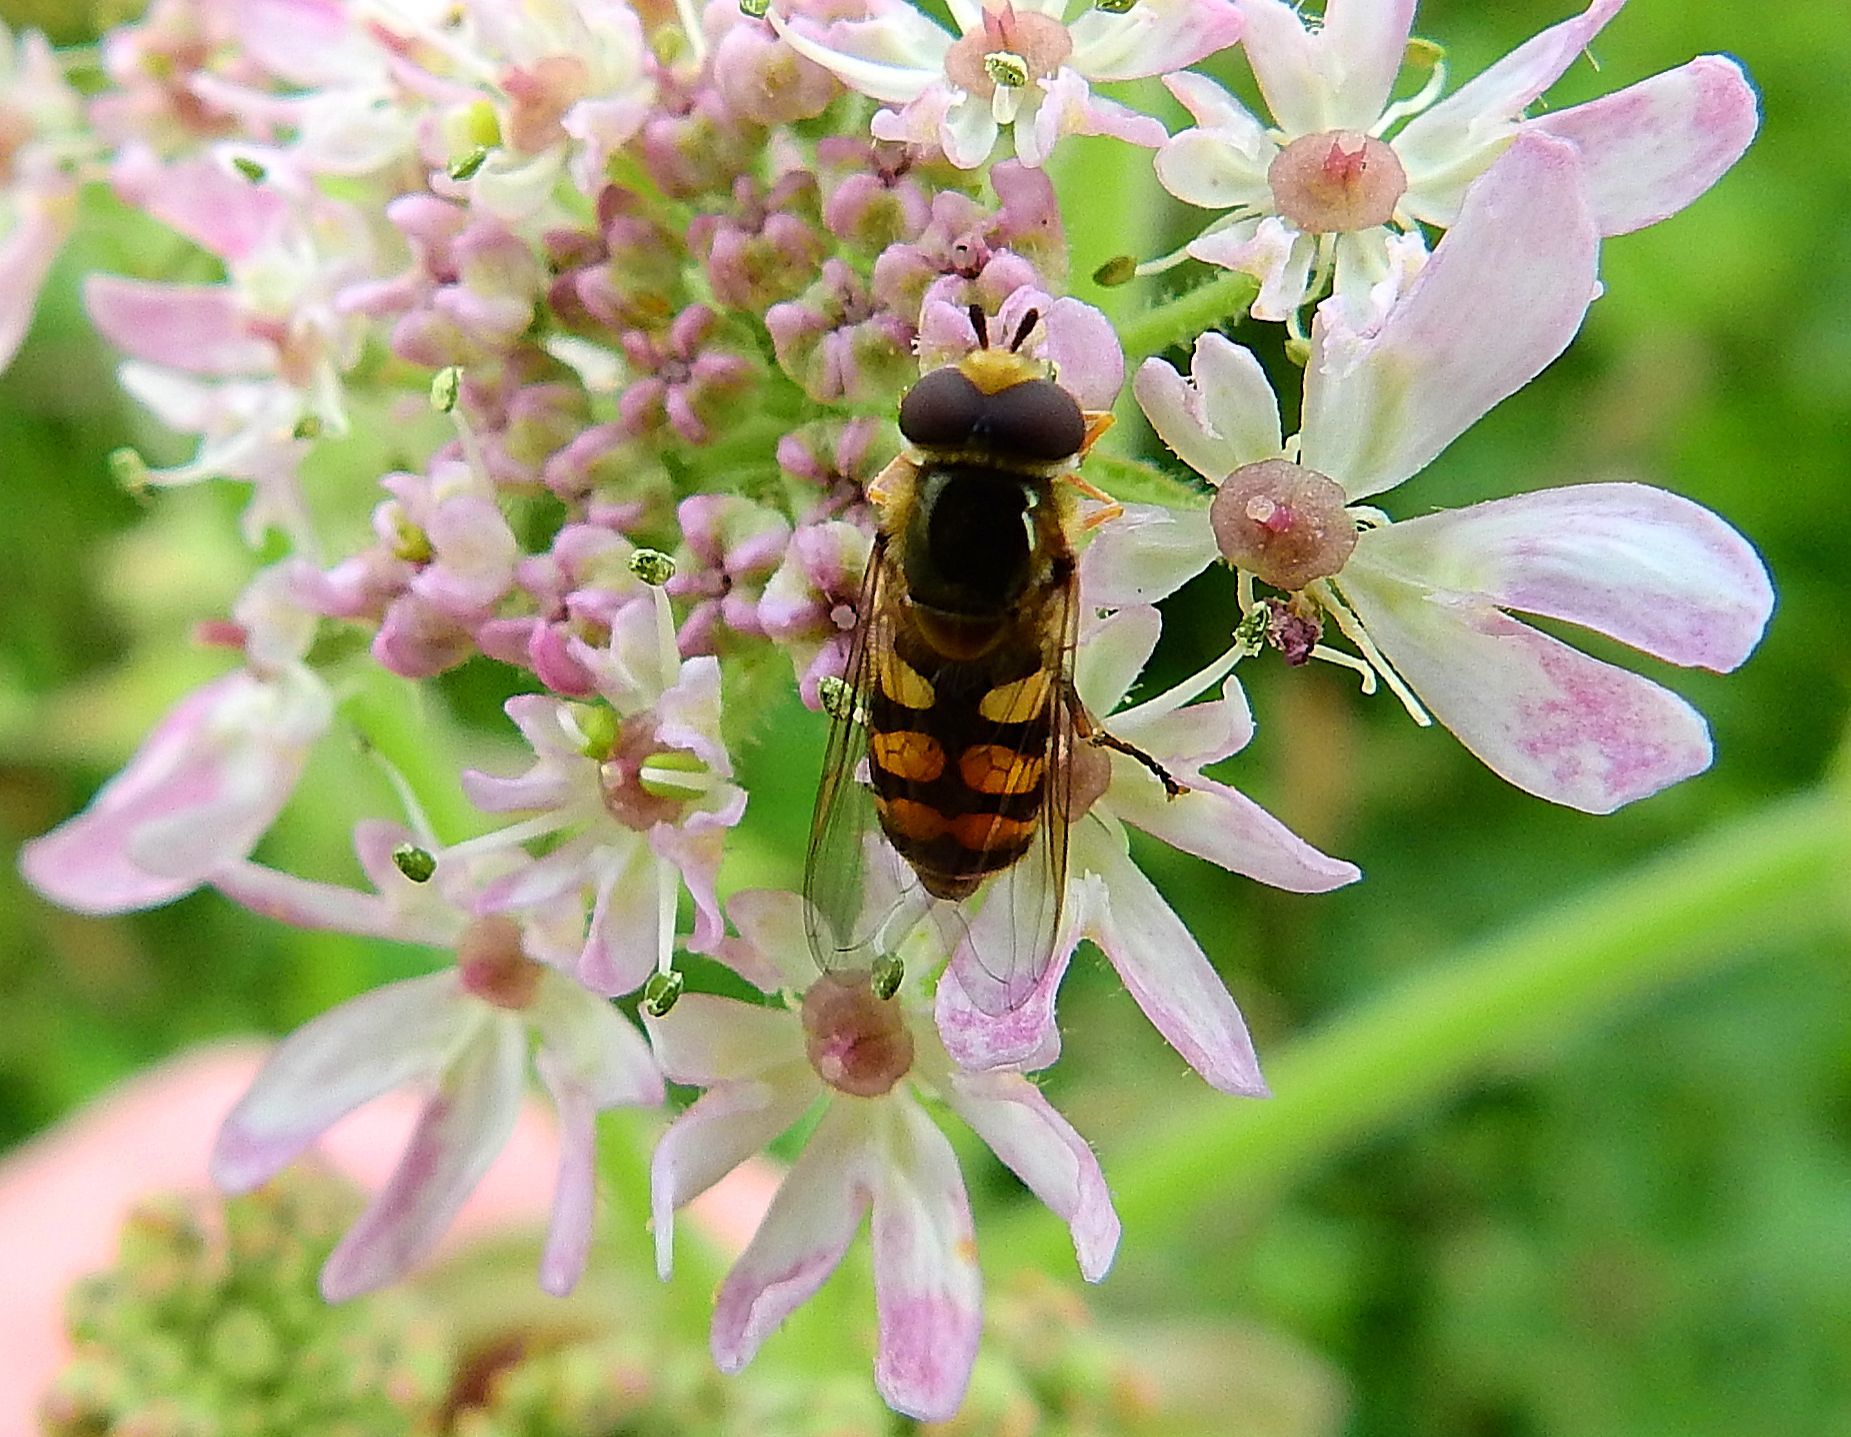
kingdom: Animalia
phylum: Arthropoda
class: Insecta
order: Diptera
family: Syrphidae
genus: Eupeodes
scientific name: Eupeodes corollae
